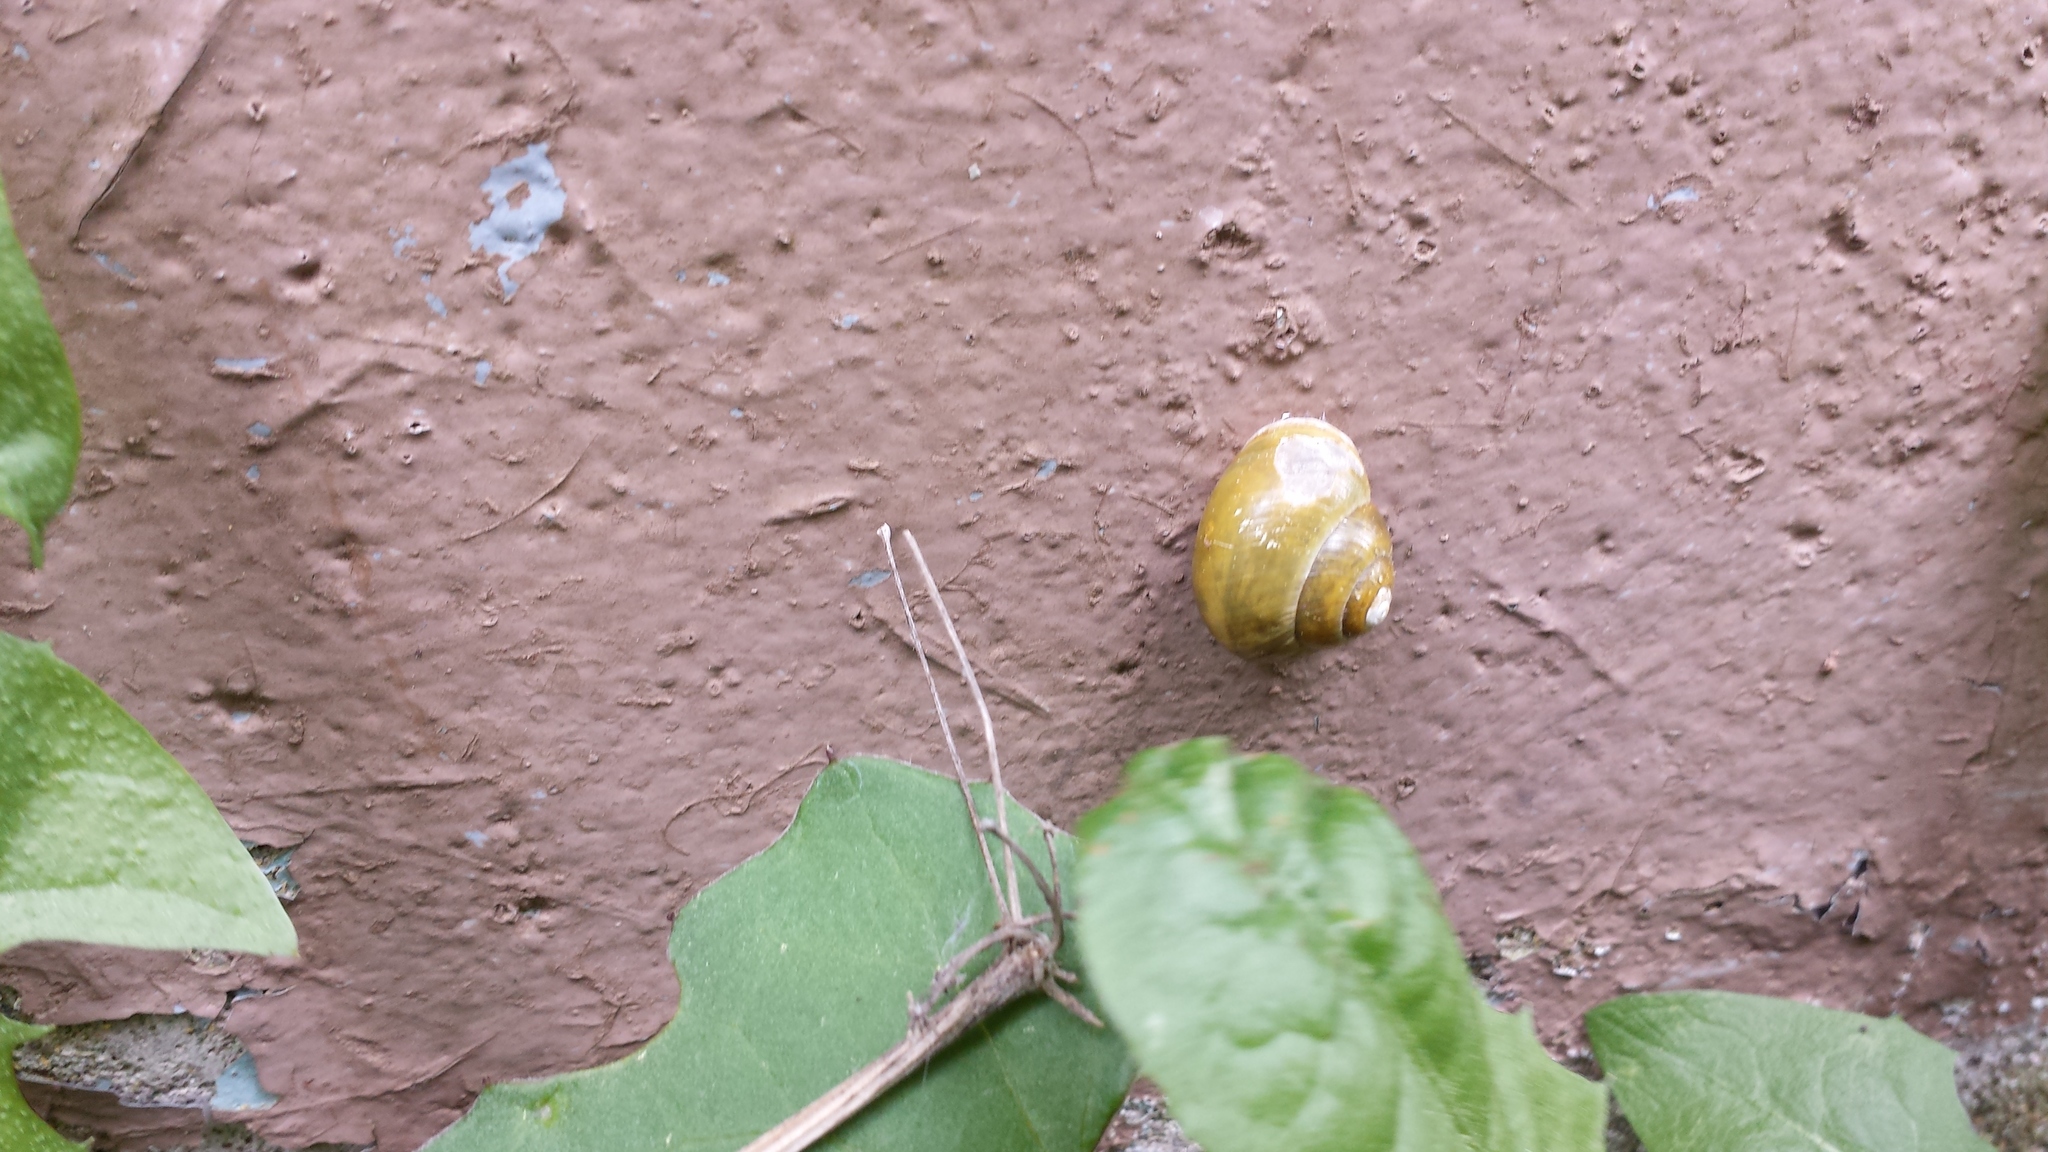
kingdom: Animalia
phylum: Mollusca
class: Gastropoda
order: Stylommatophora
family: Helicidae
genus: Cepaea
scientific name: Cepaea hortensis
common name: White-lip gardensnail
